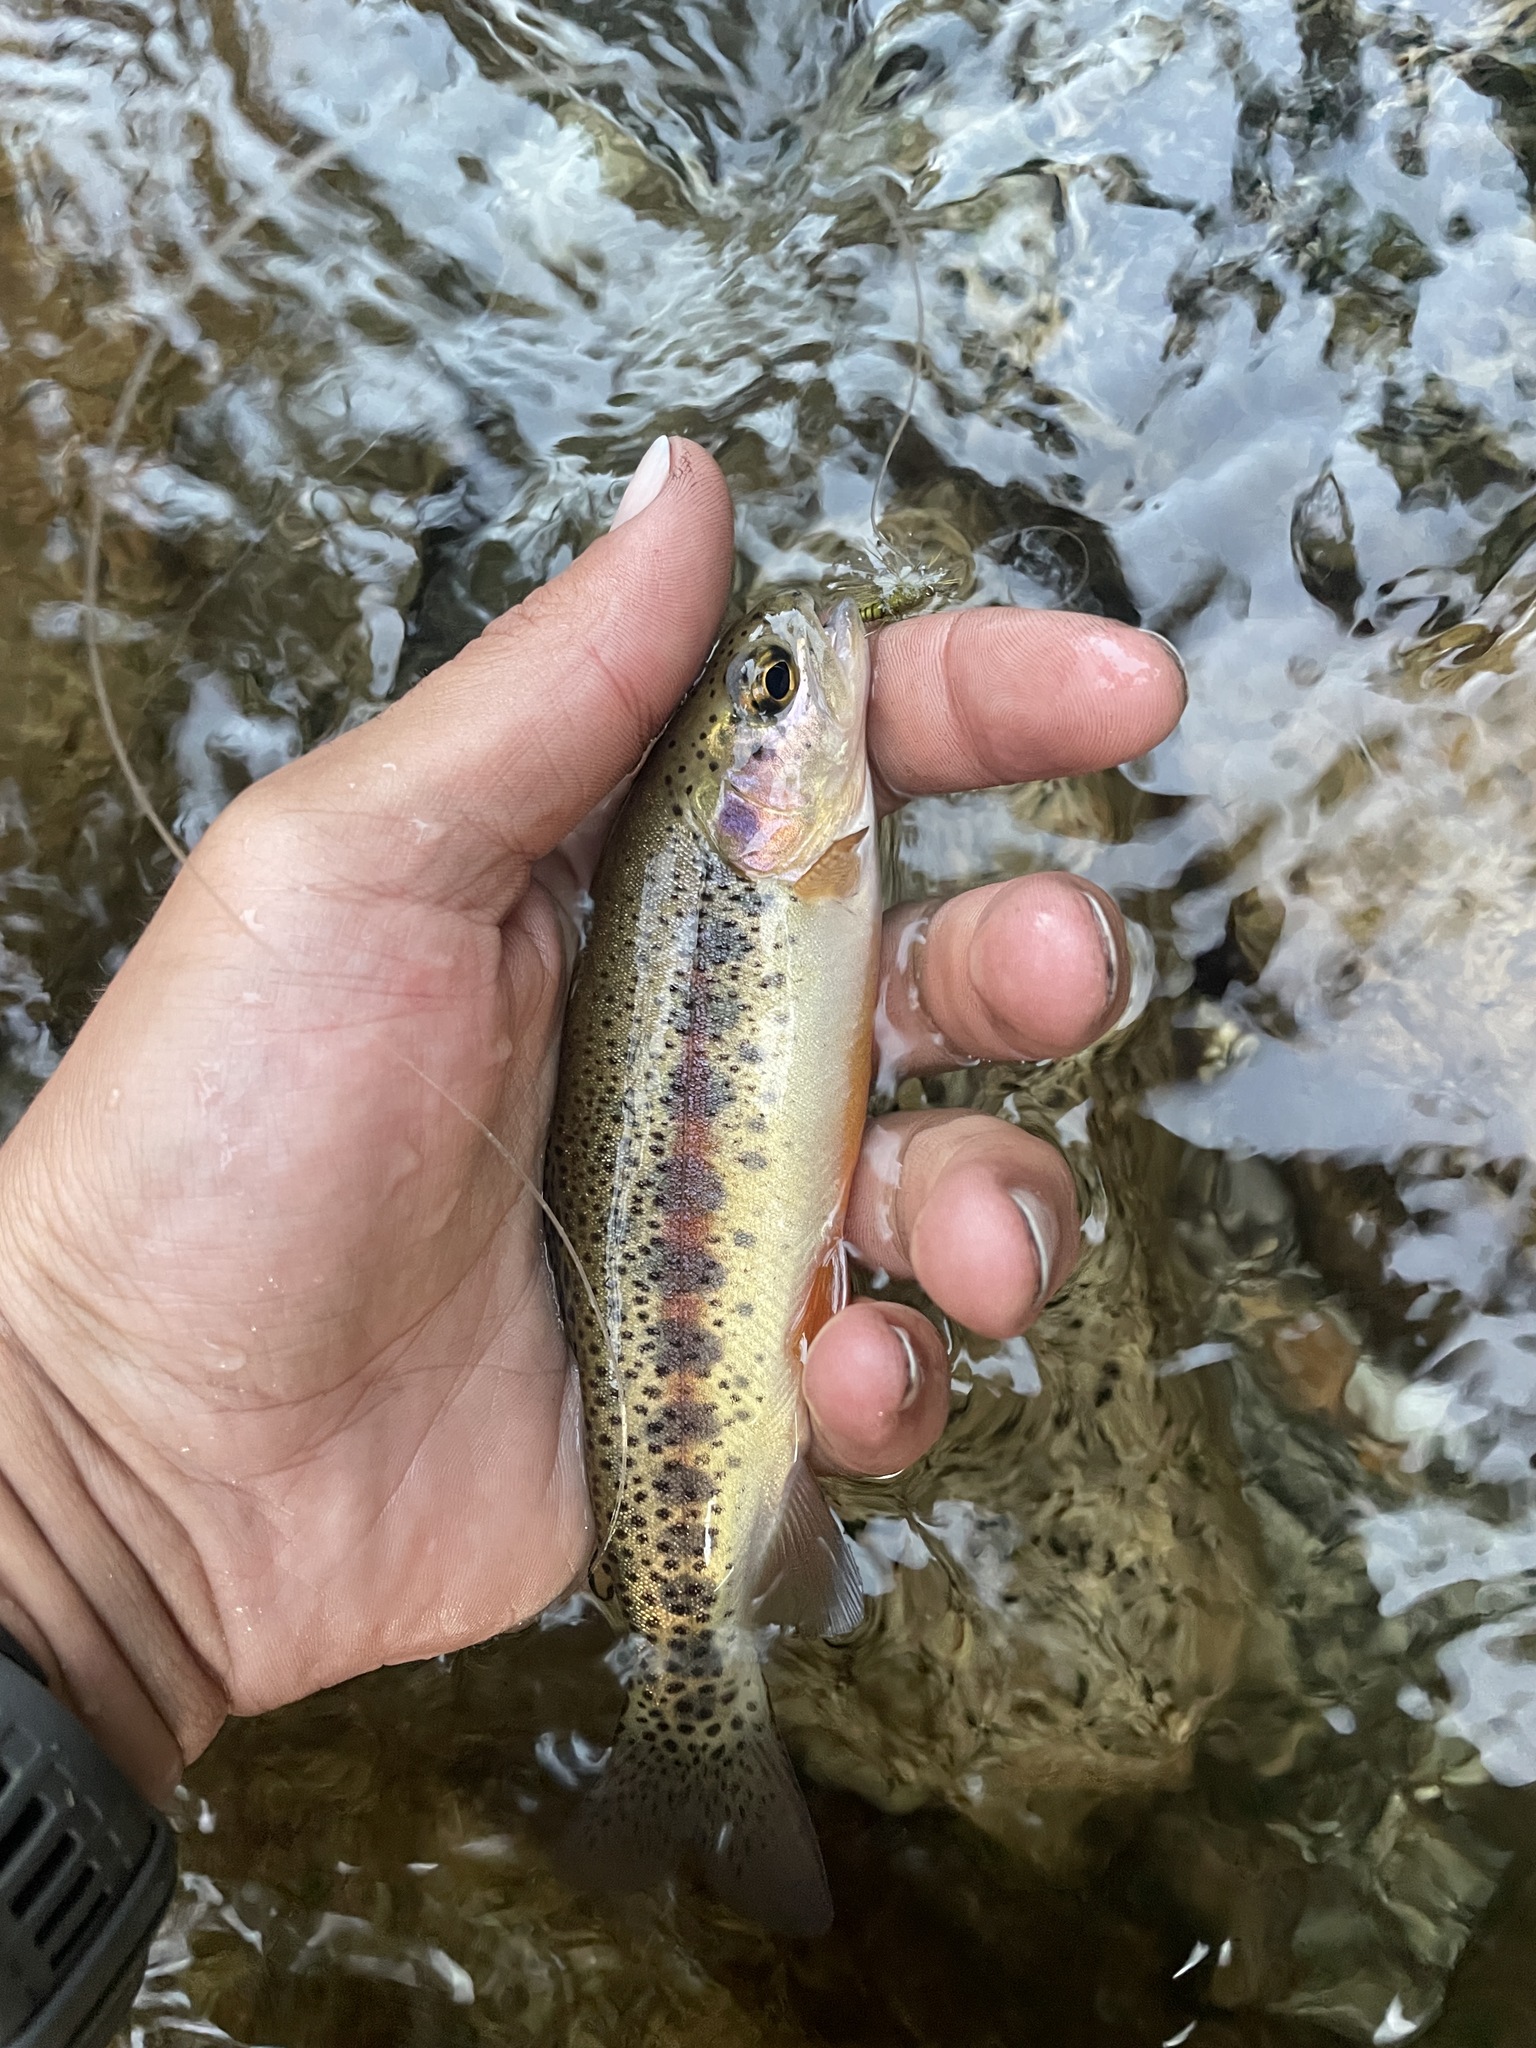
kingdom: Animalia
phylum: Chordata
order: Salmoniformes
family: Salmonidae
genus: Oncorhynchus
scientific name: Oncorhynchus mykiss
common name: Rainbow trout
